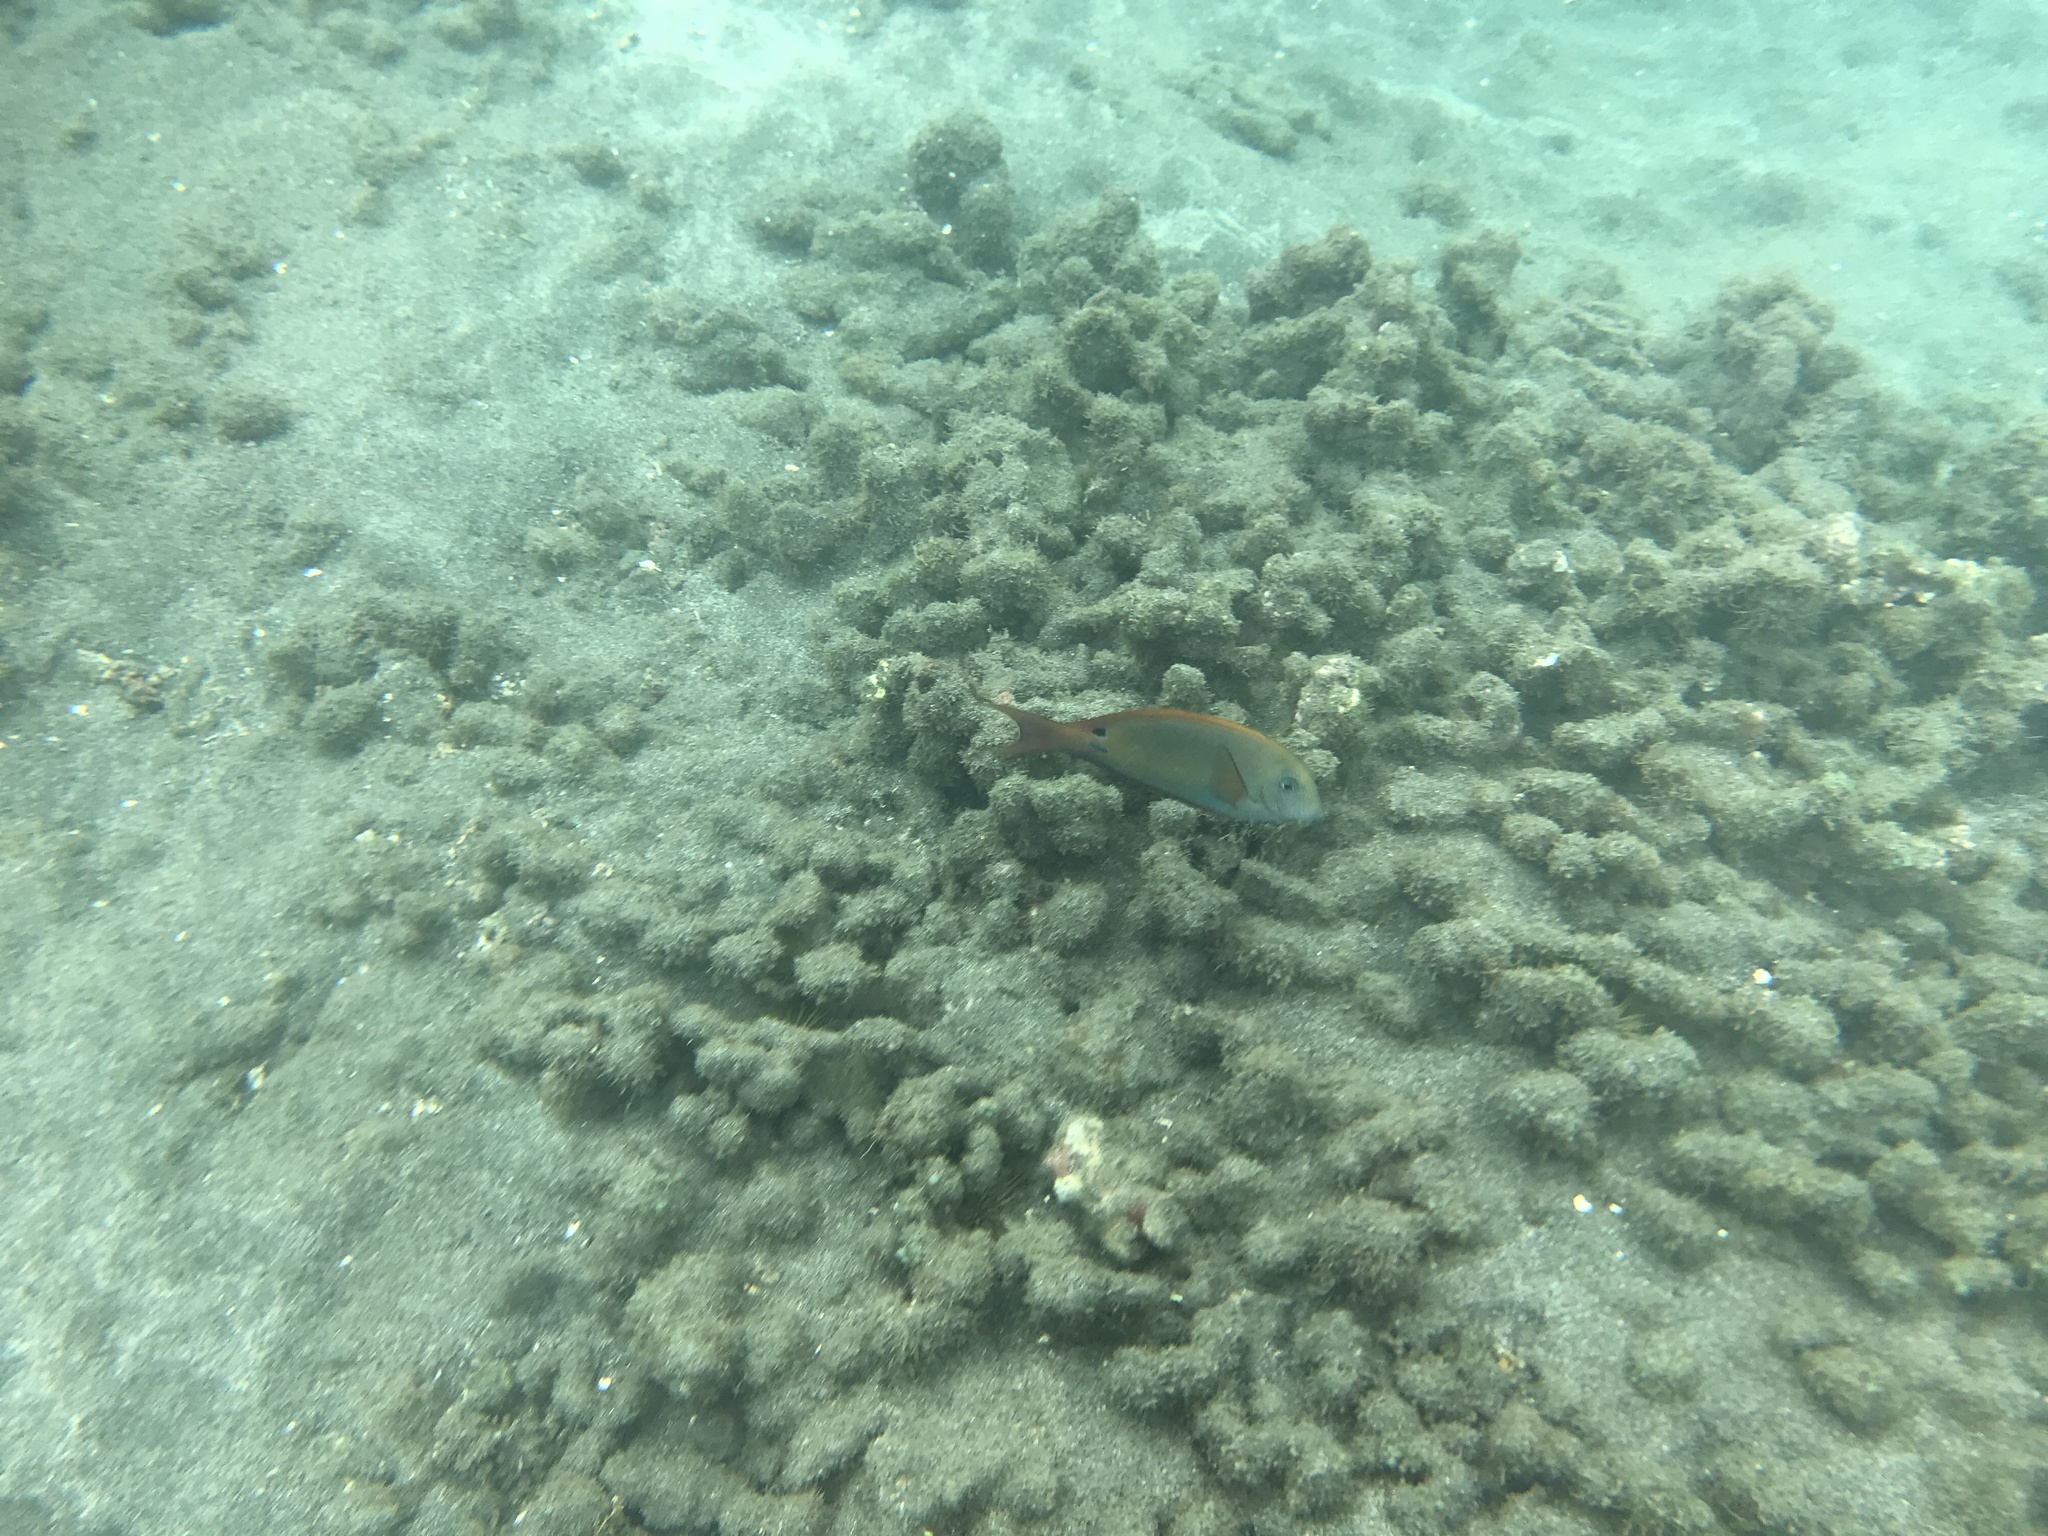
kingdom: Animalia
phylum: Chordata
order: Perciformes
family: Acanthuridae
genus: Acanthurus
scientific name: Acanthurus nigrofuscus
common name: Blackspot surgeonfish
